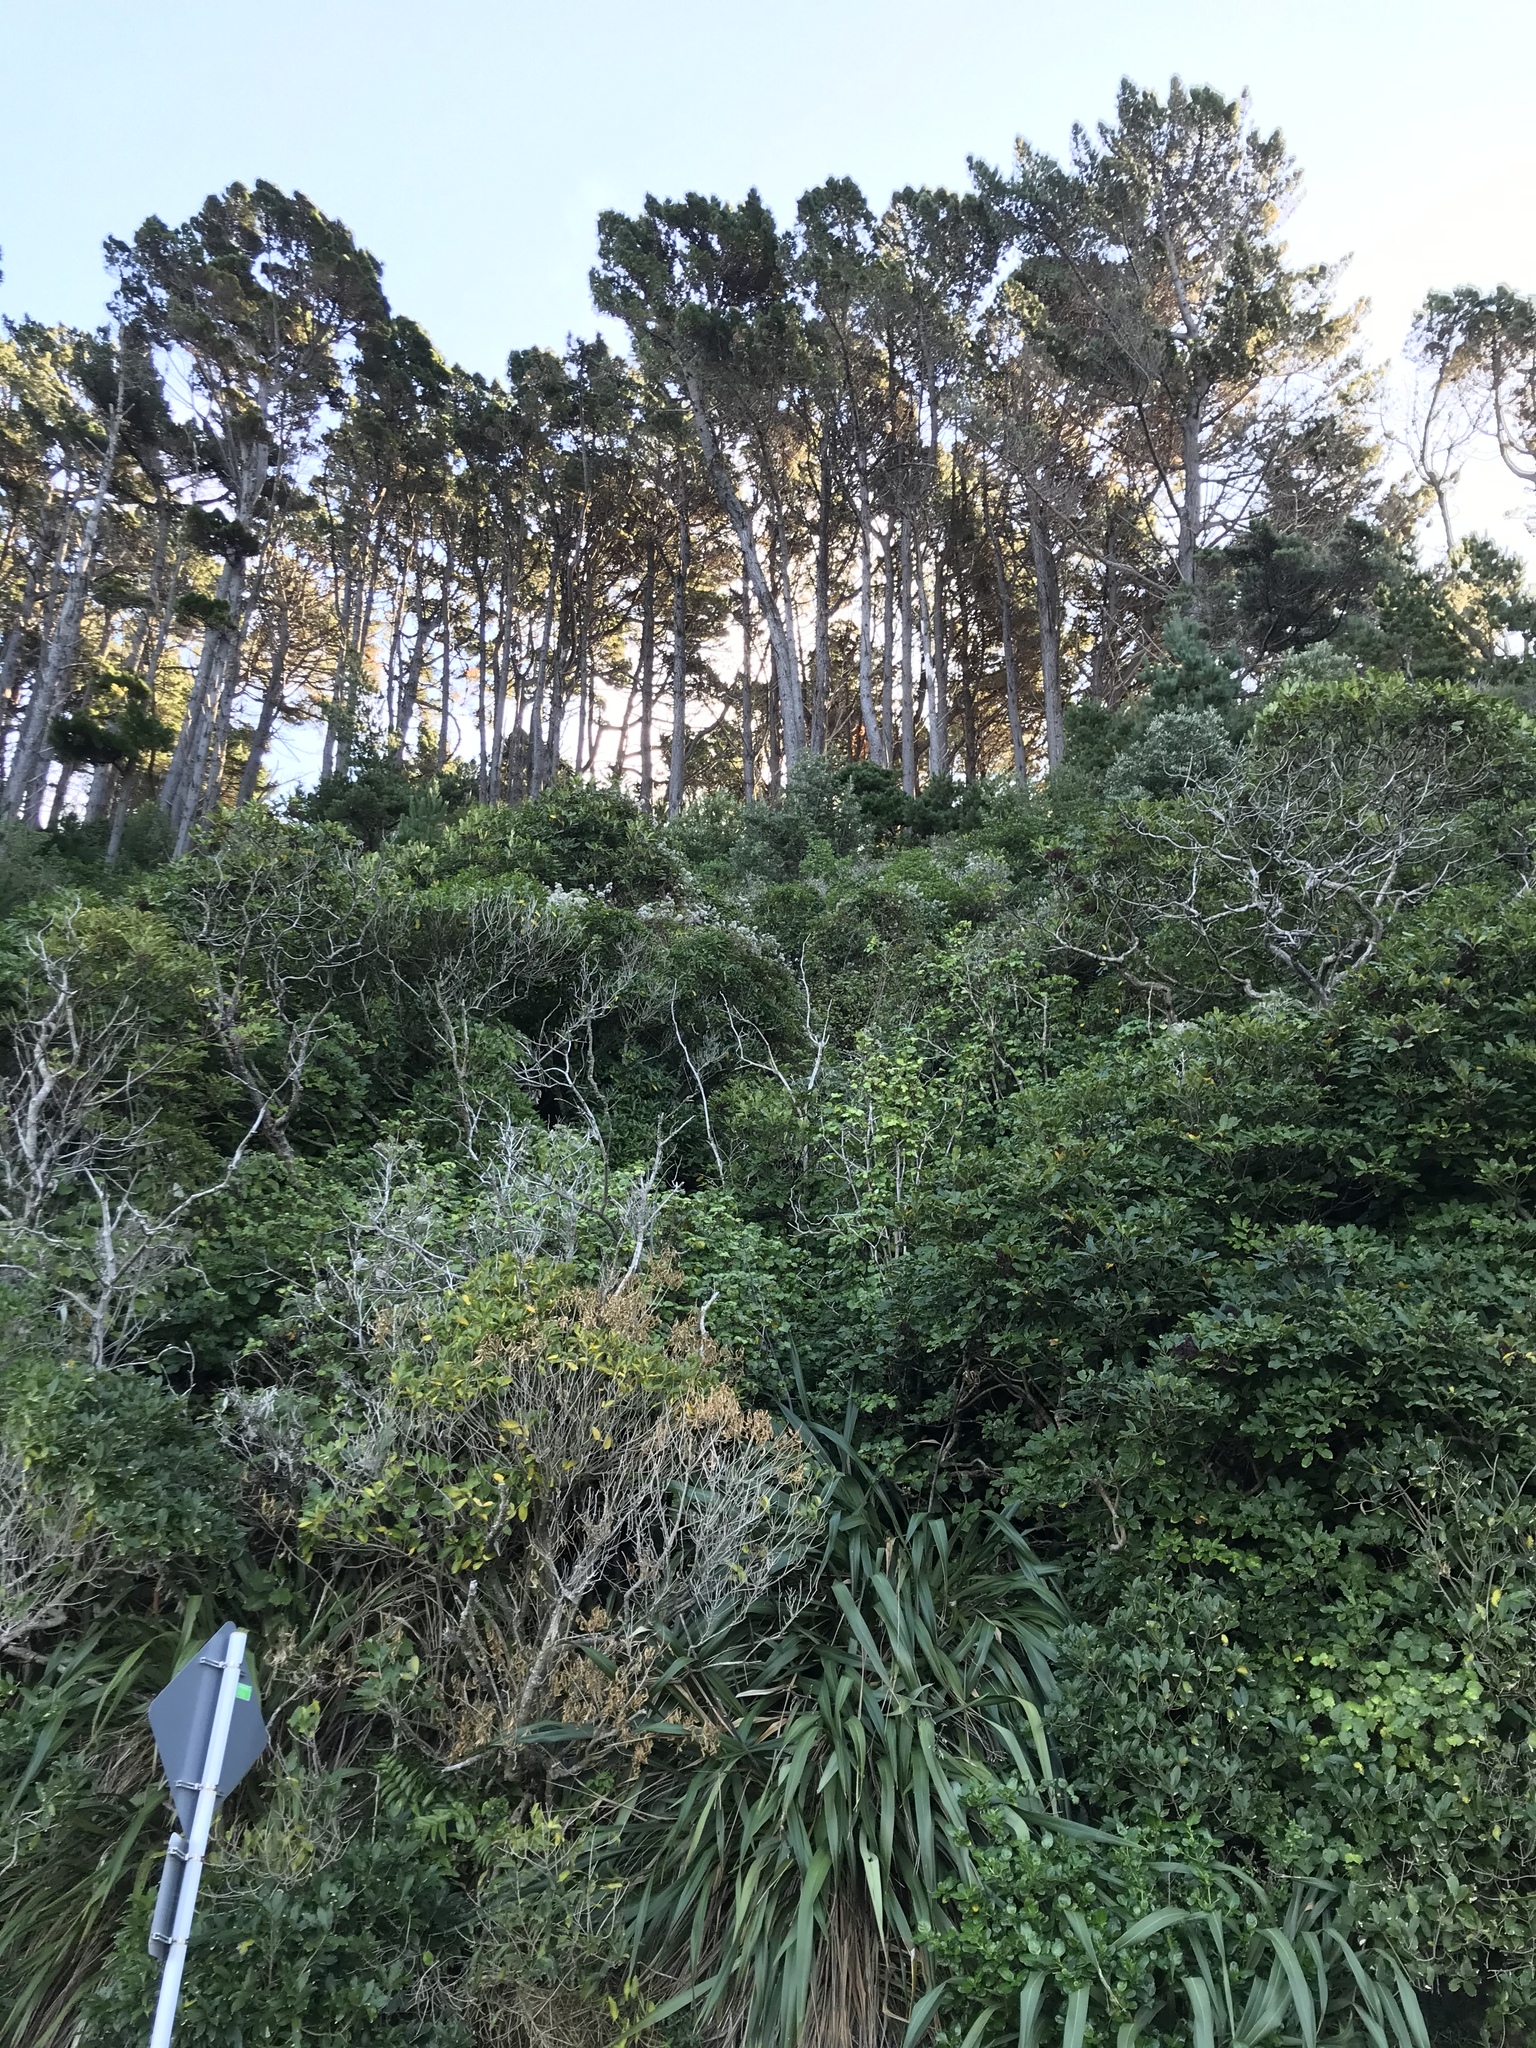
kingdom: Plantae
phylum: Tracheophyta
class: Magnoliopsida
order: Ranunculales
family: Ranunculaceae
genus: Clematis
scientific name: Clematis vitalba
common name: Evergreen clematis
